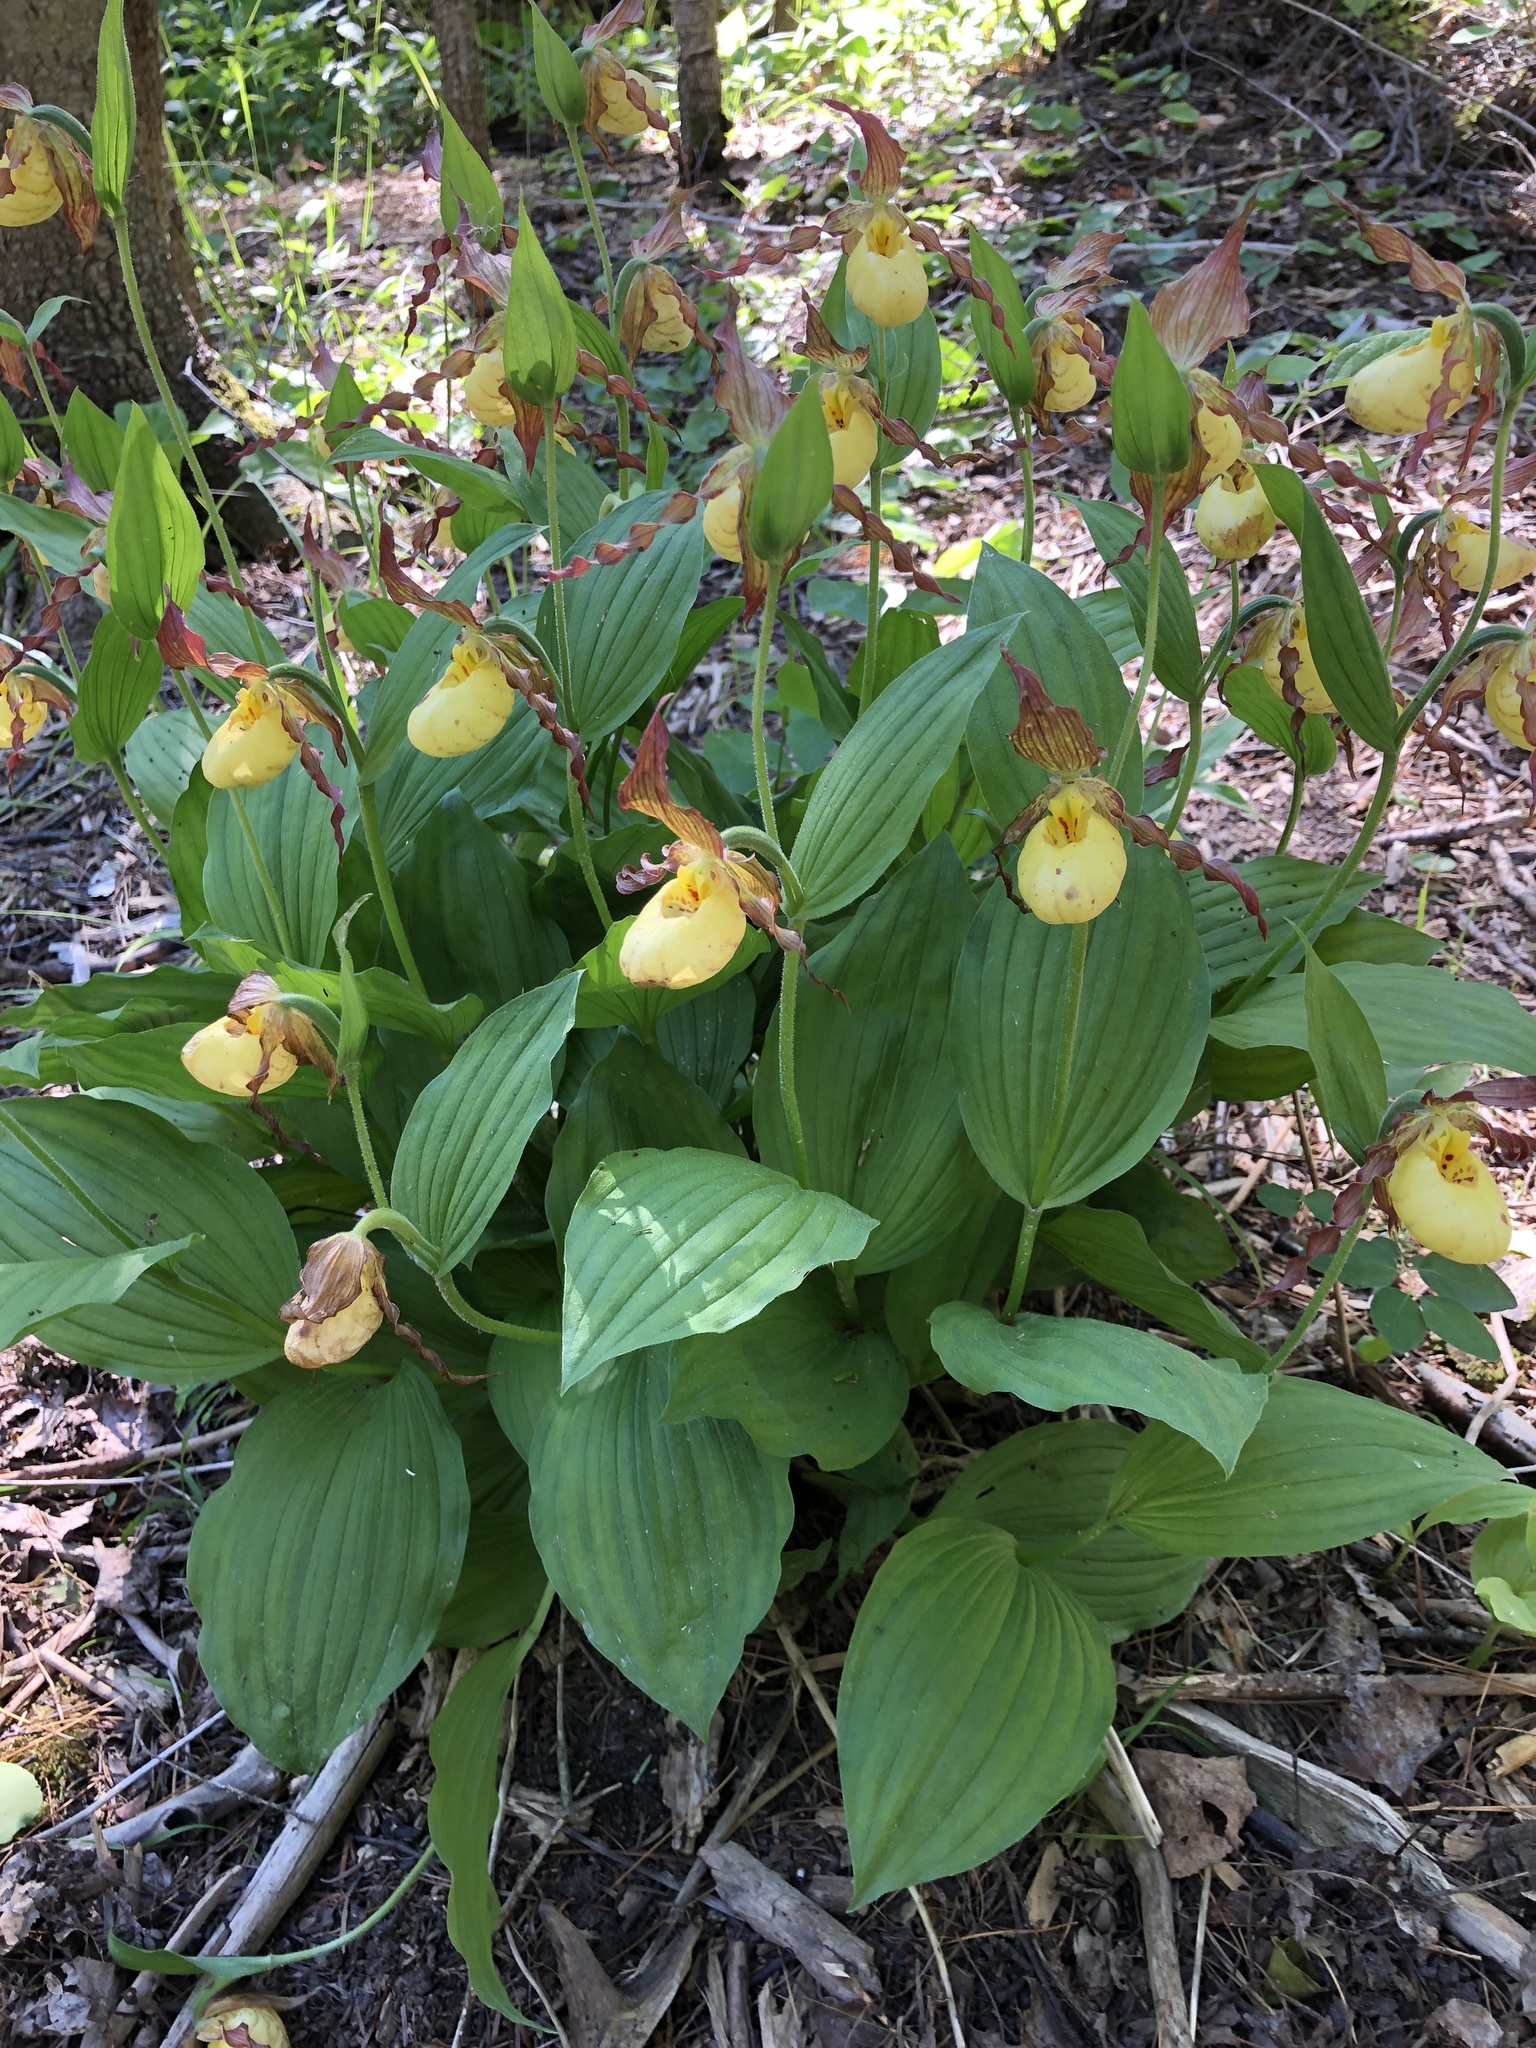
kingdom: Plantae
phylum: Tracheophyta
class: Liliopsida
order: Asparagales
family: Orchidaceae
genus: Cypripedium
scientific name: Cypripedium parviflorum
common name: American yellow lady's-slipper
